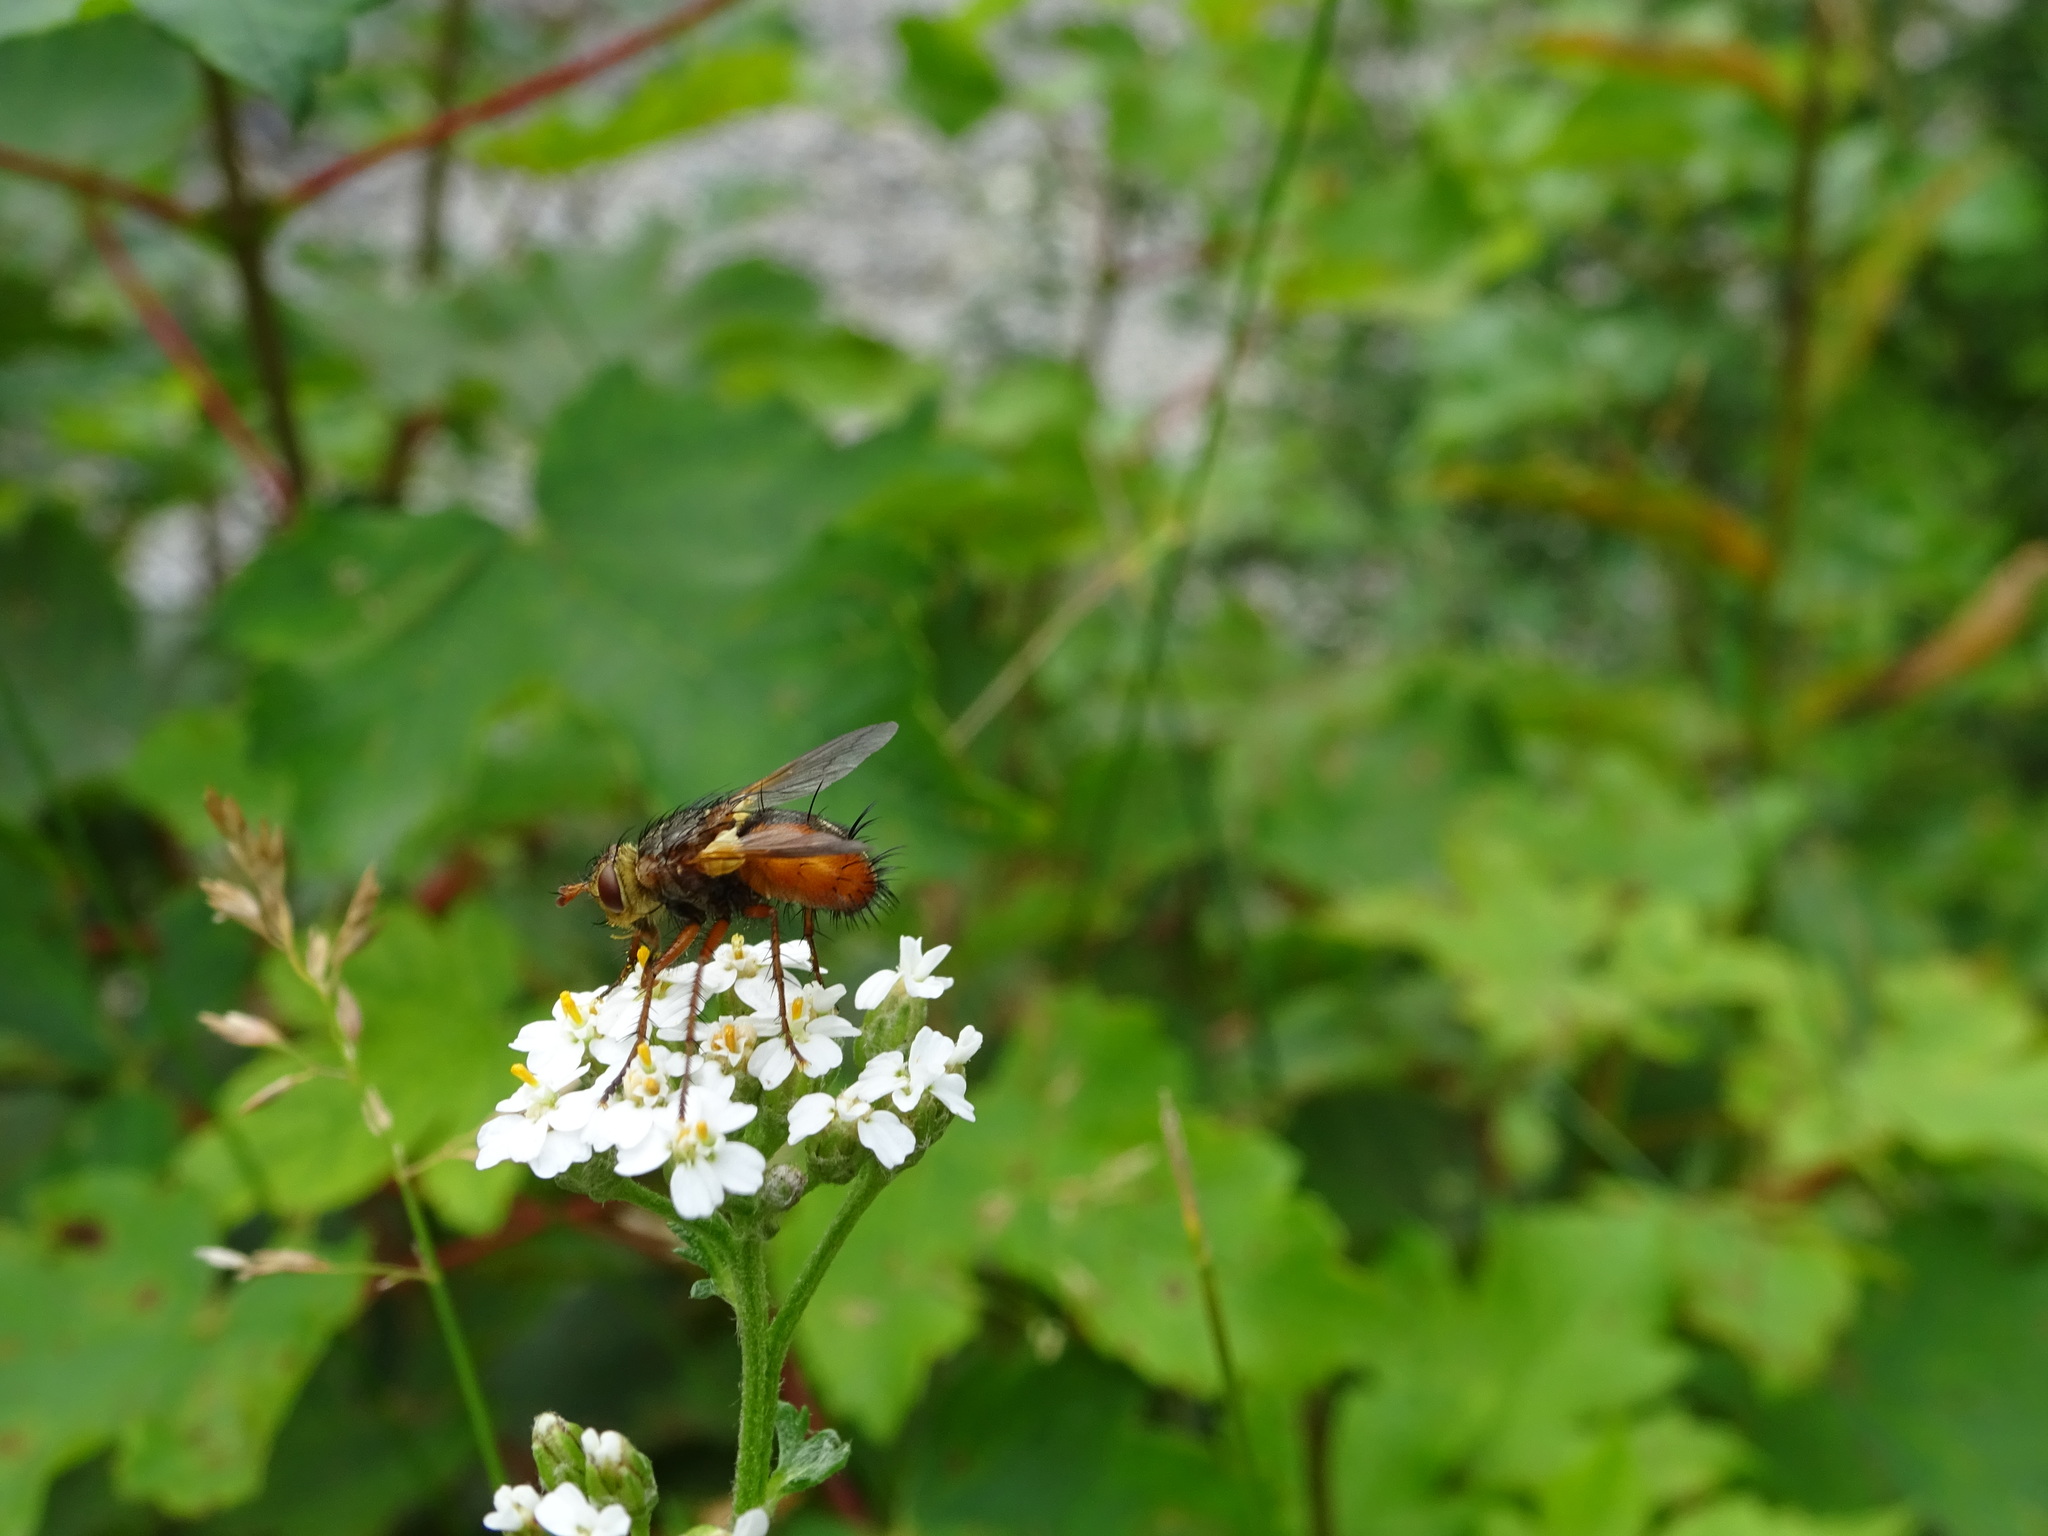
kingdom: Animalia
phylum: Arthropoda
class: Insecta
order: Diptera
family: Tachinidae
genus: Tachina
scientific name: Tachina fera
